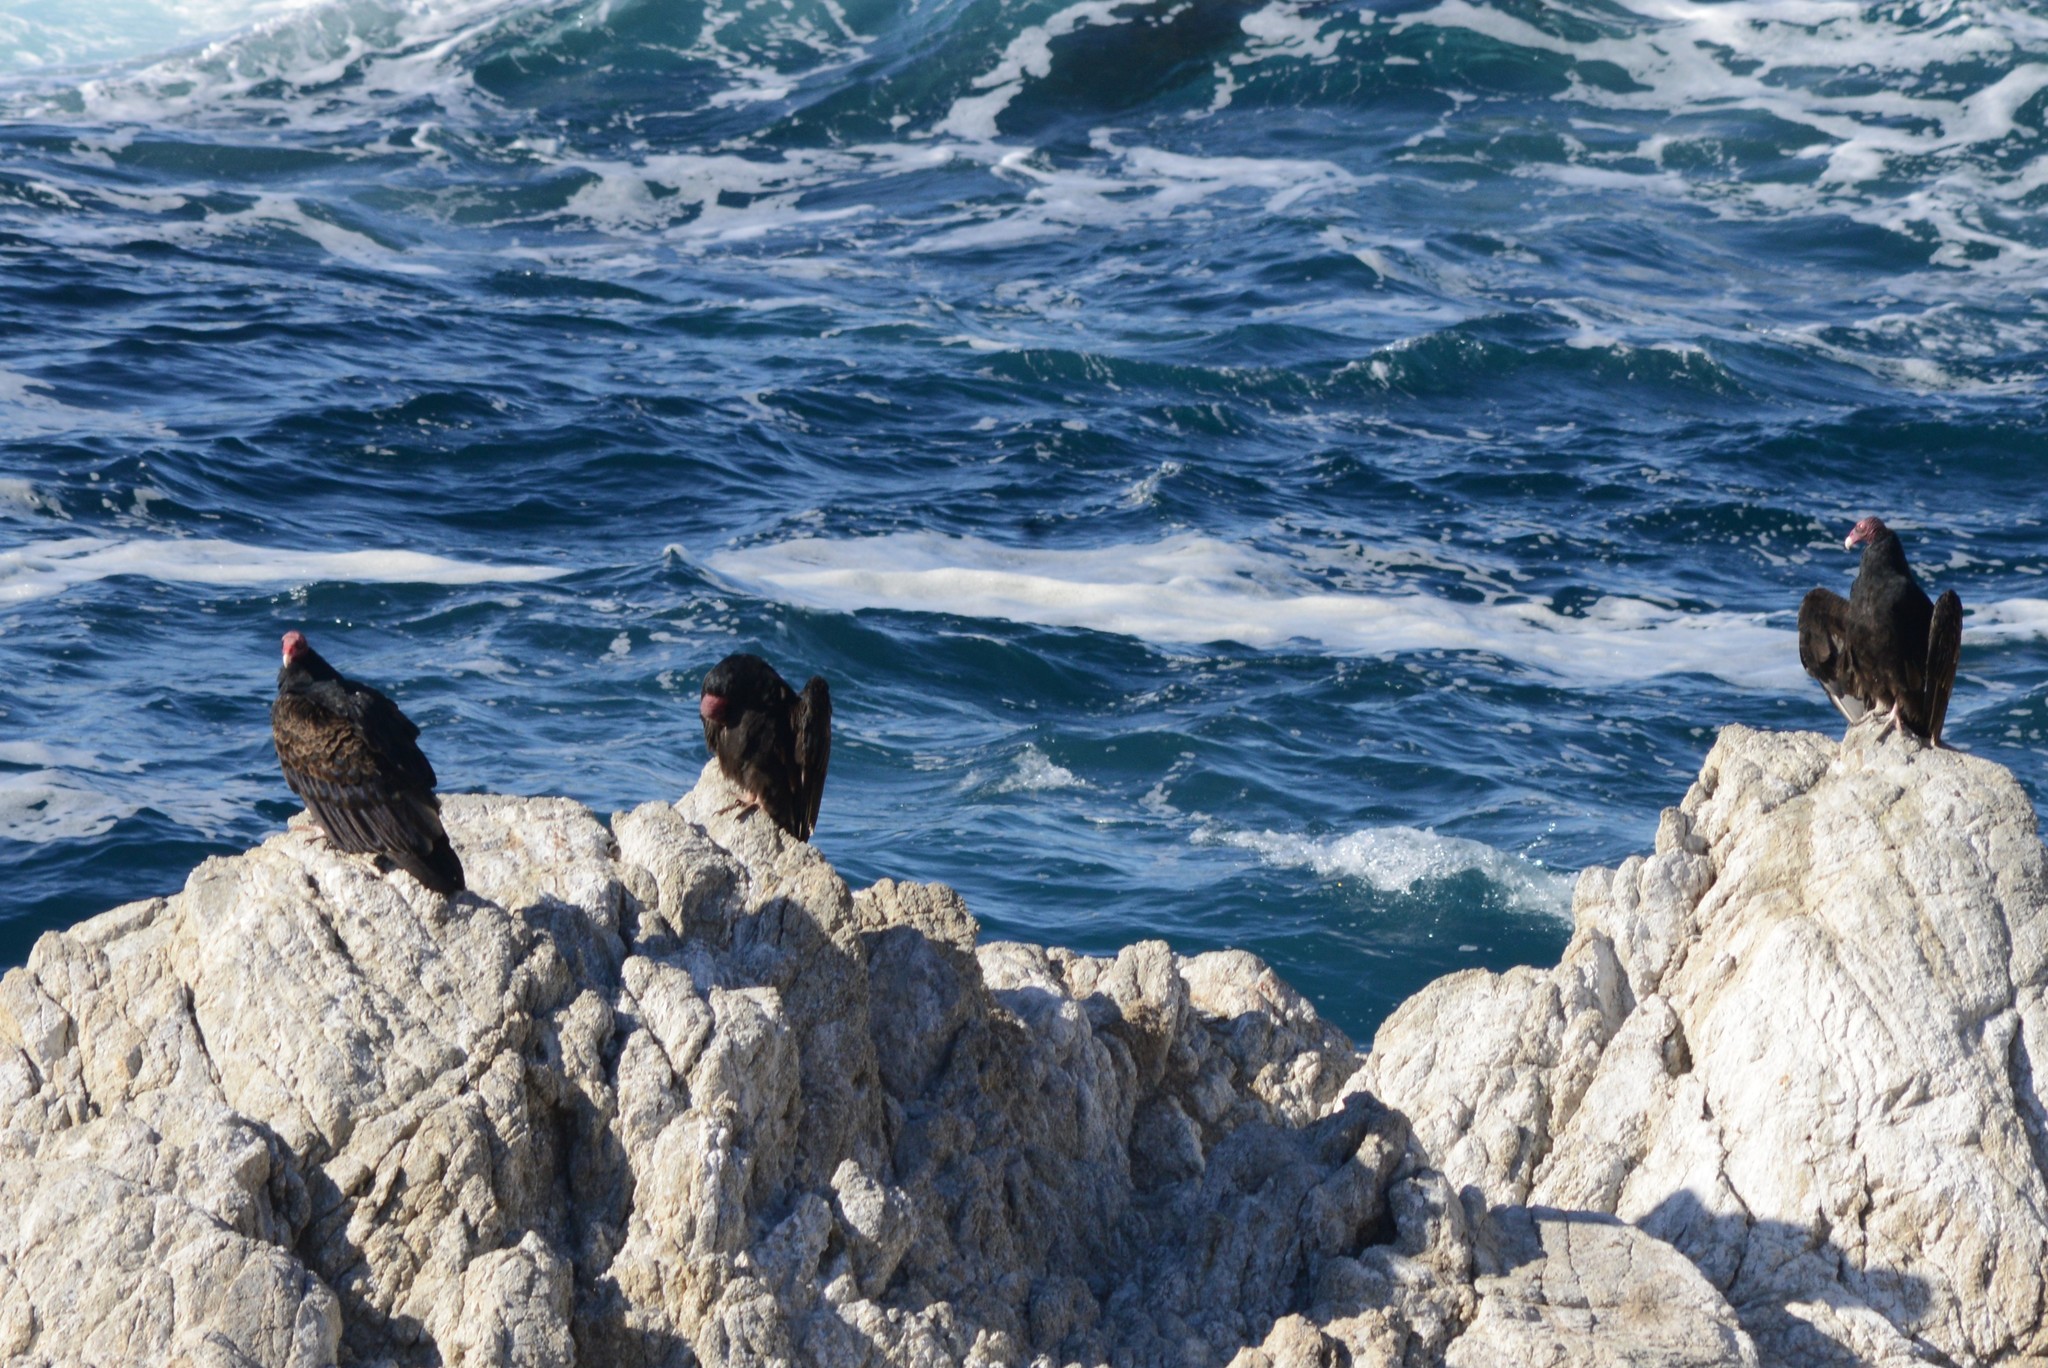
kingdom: Animalia
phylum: Chordata
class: Aves
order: Accipitriformes
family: Cathartidae
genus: Cathartes
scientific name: Cathartes aura
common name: Turkey vulture
